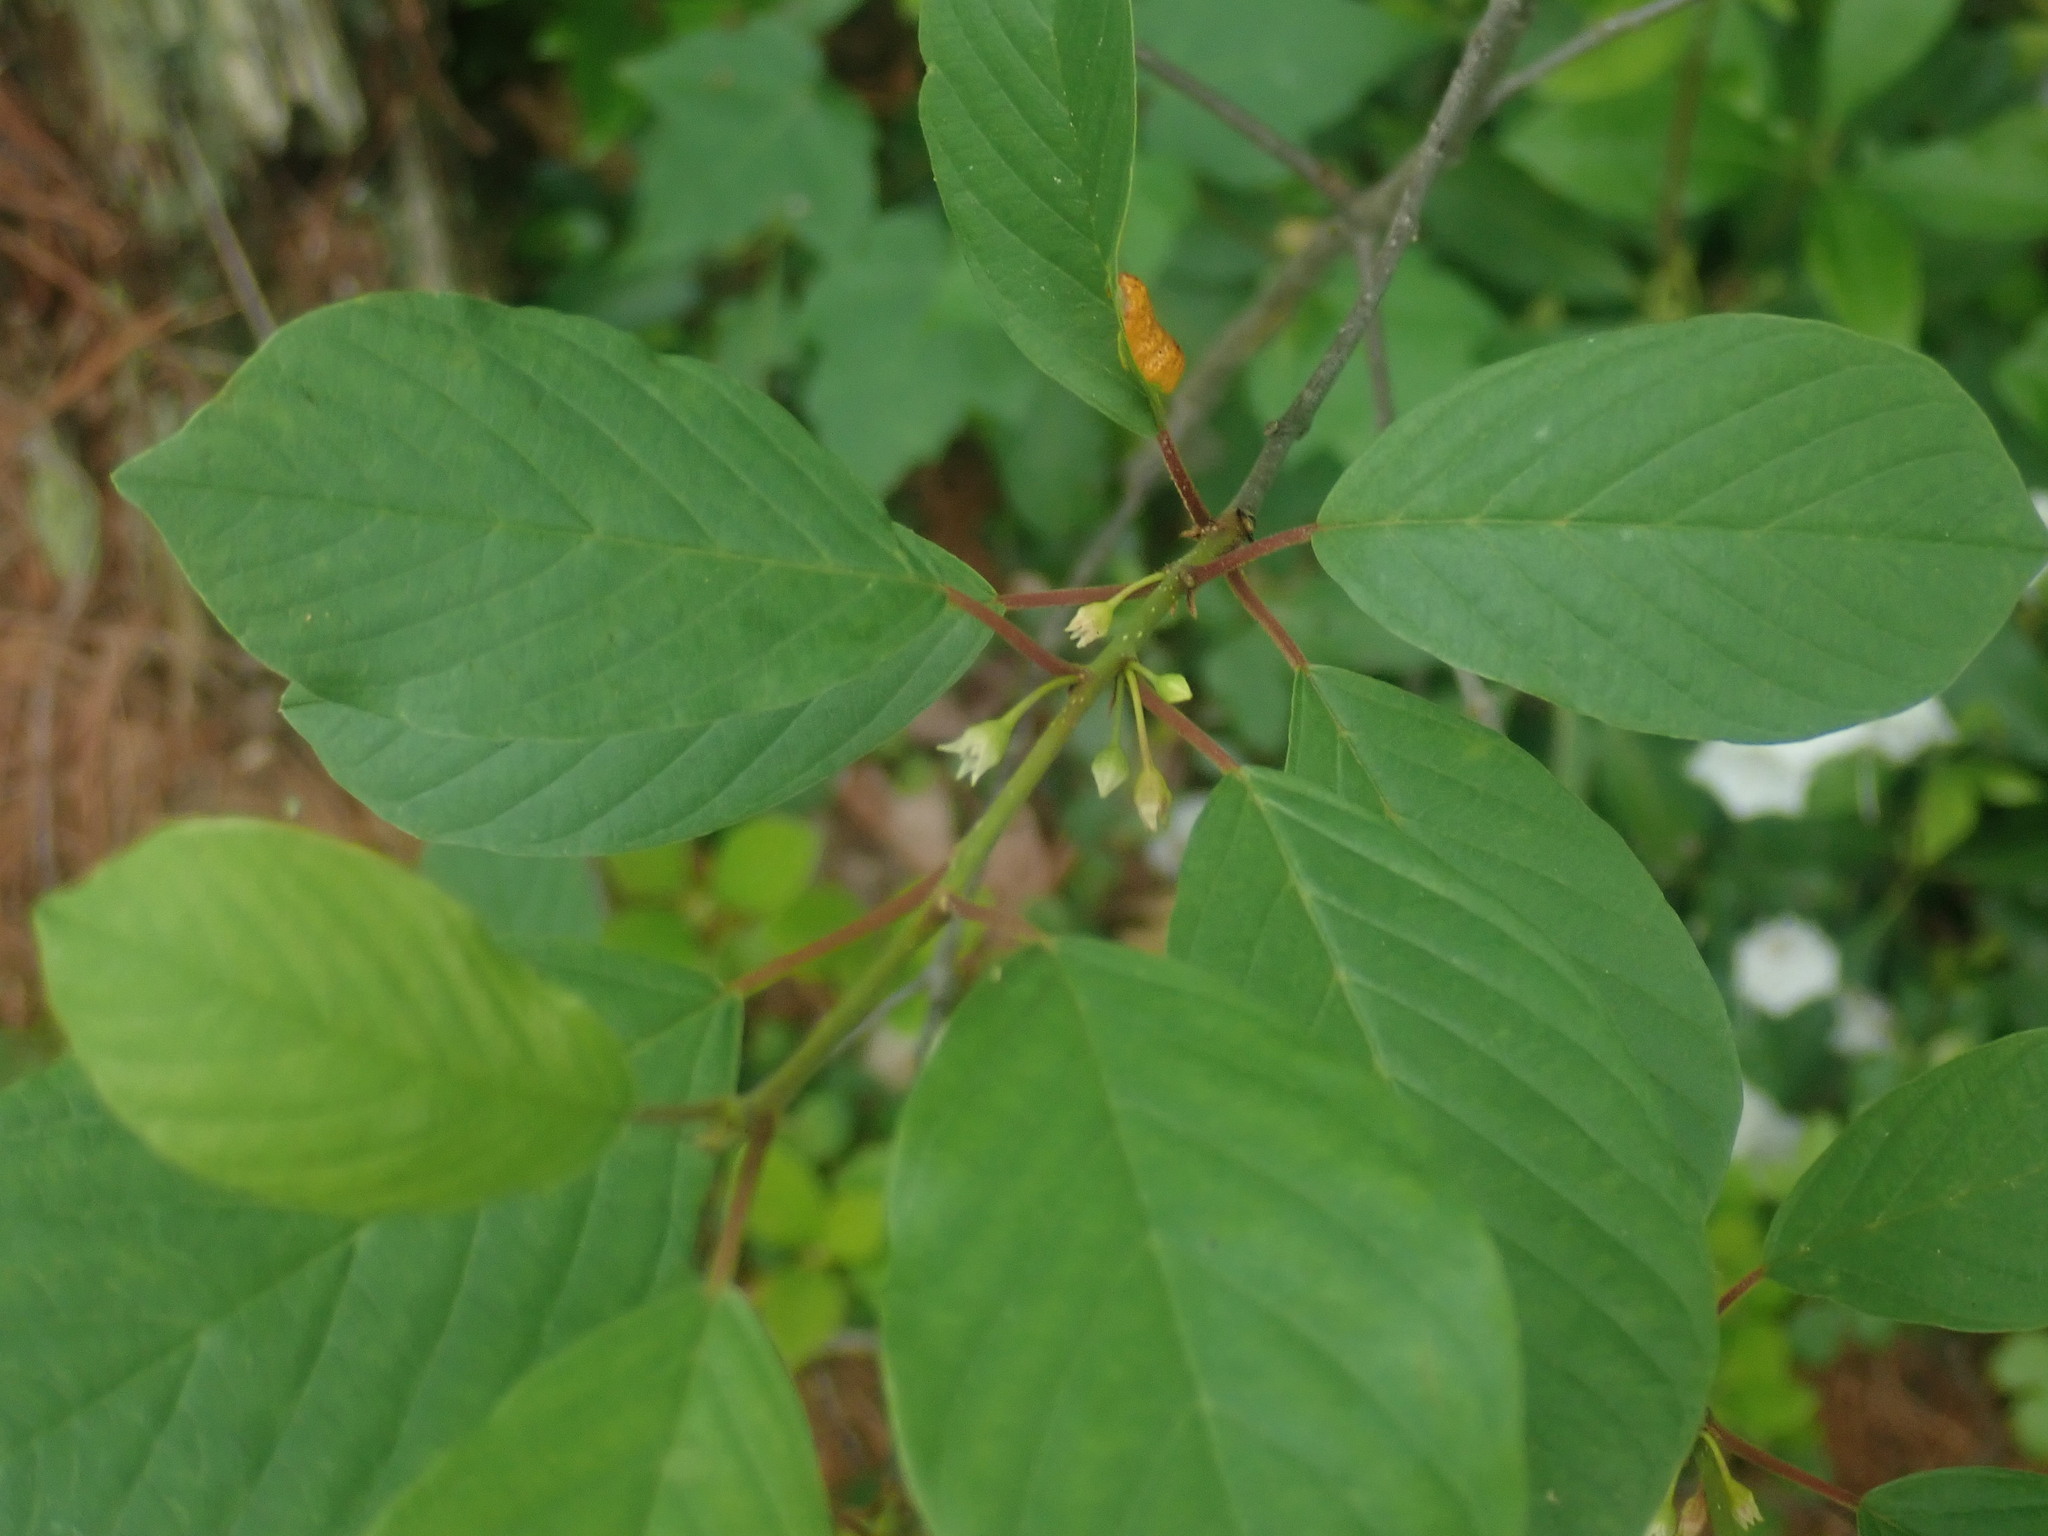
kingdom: Plantae
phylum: Tracheophyta
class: Magnoliopsida
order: Rosales
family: Rhamnaceae
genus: Frangula
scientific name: Frangula alnus
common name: Alder buckthorn
